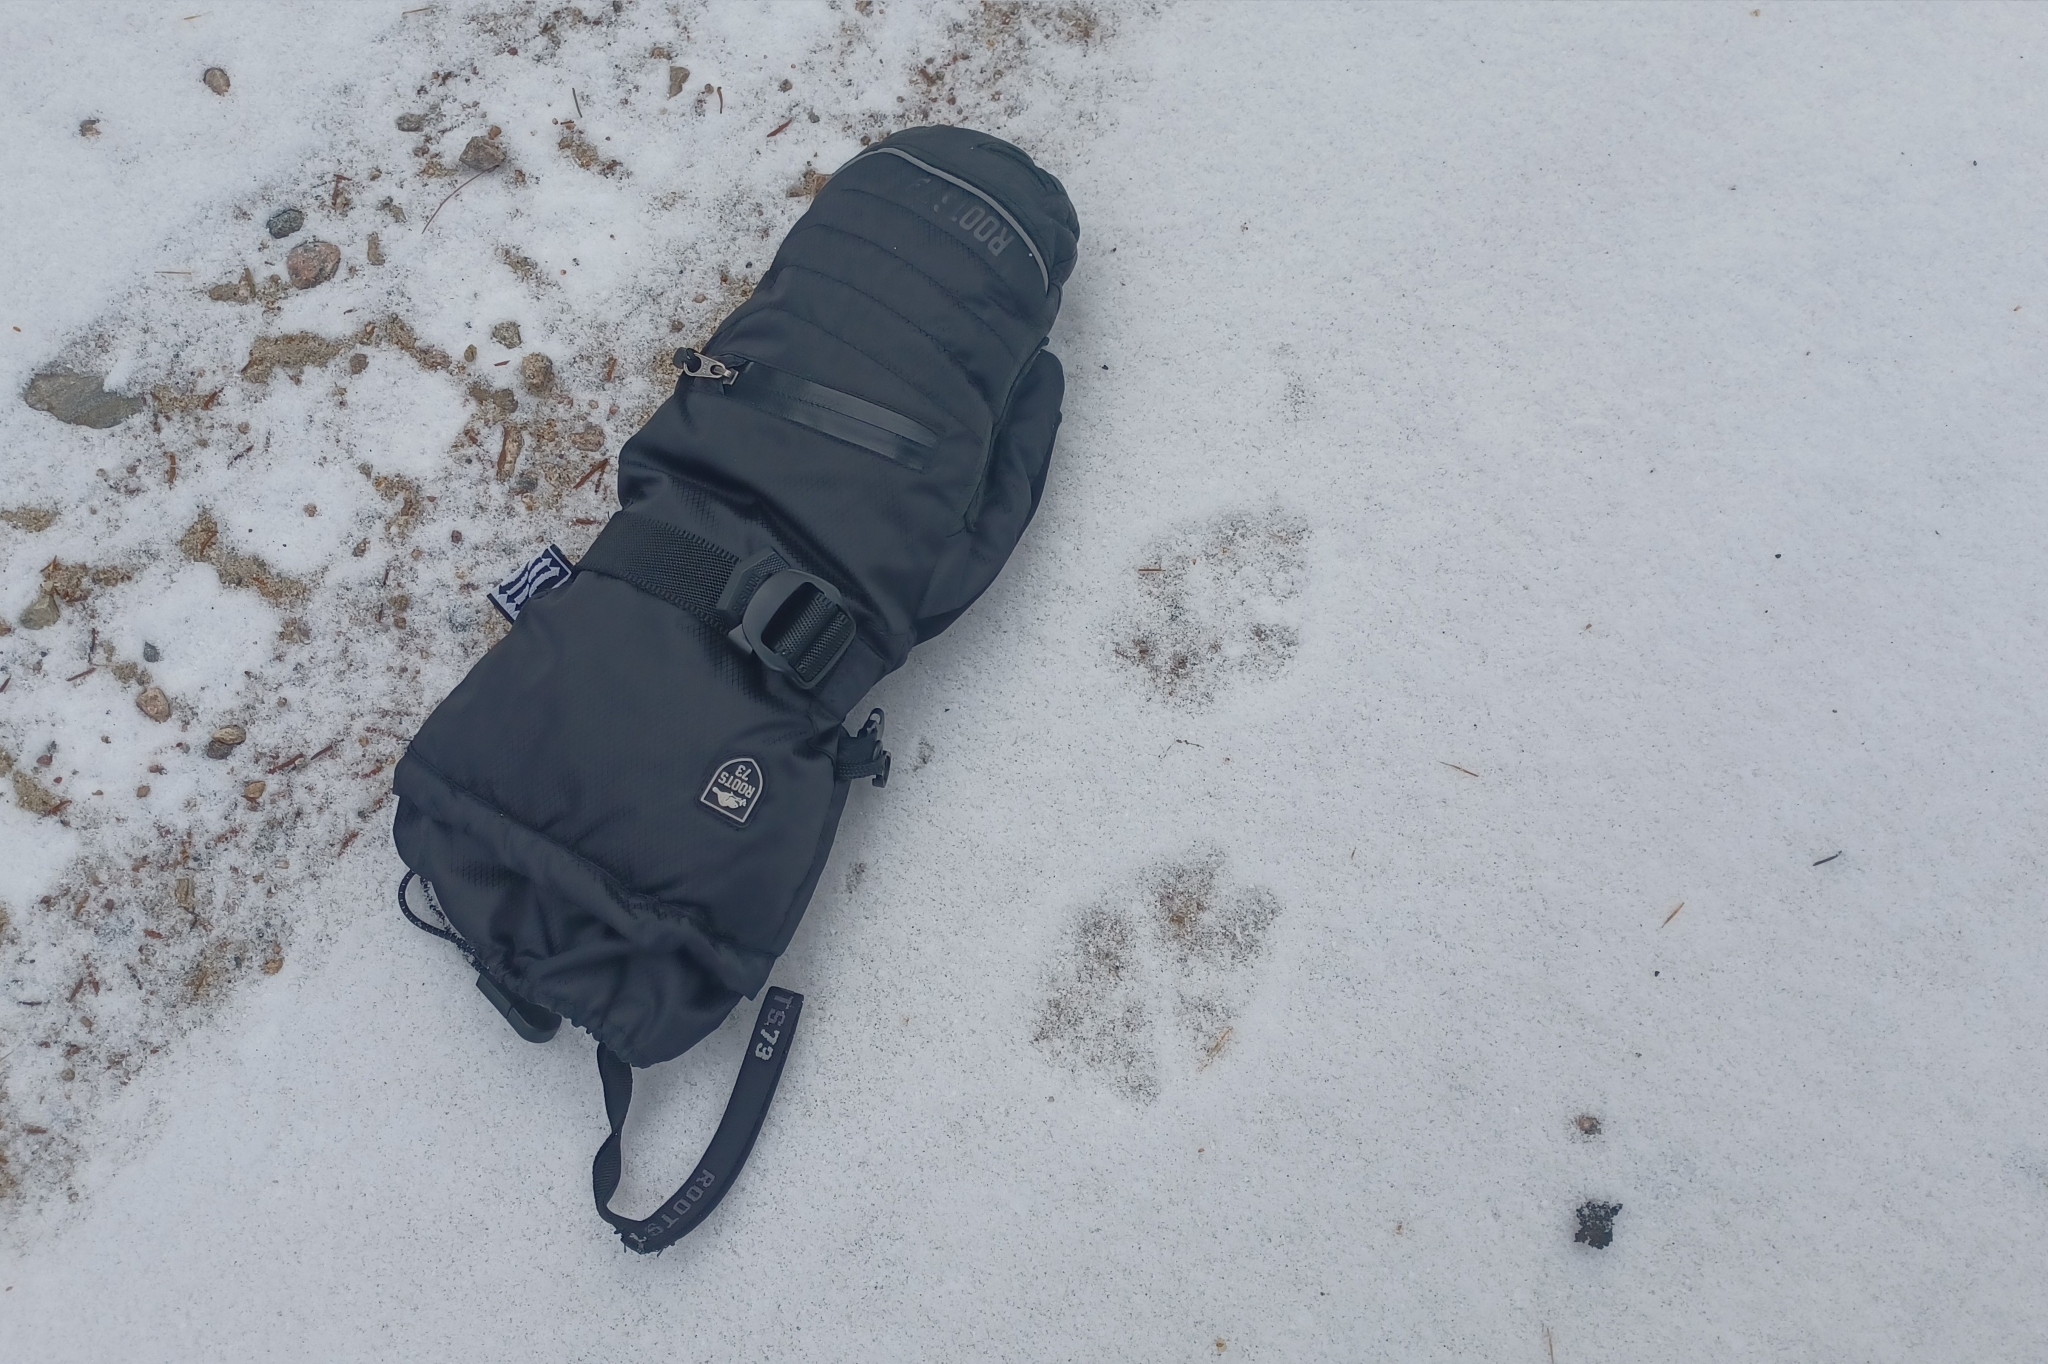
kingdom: Animalia
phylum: Chordata
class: Mammalia
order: Carnivora
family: Canidae
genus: Canis
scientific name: Canis lycaon
